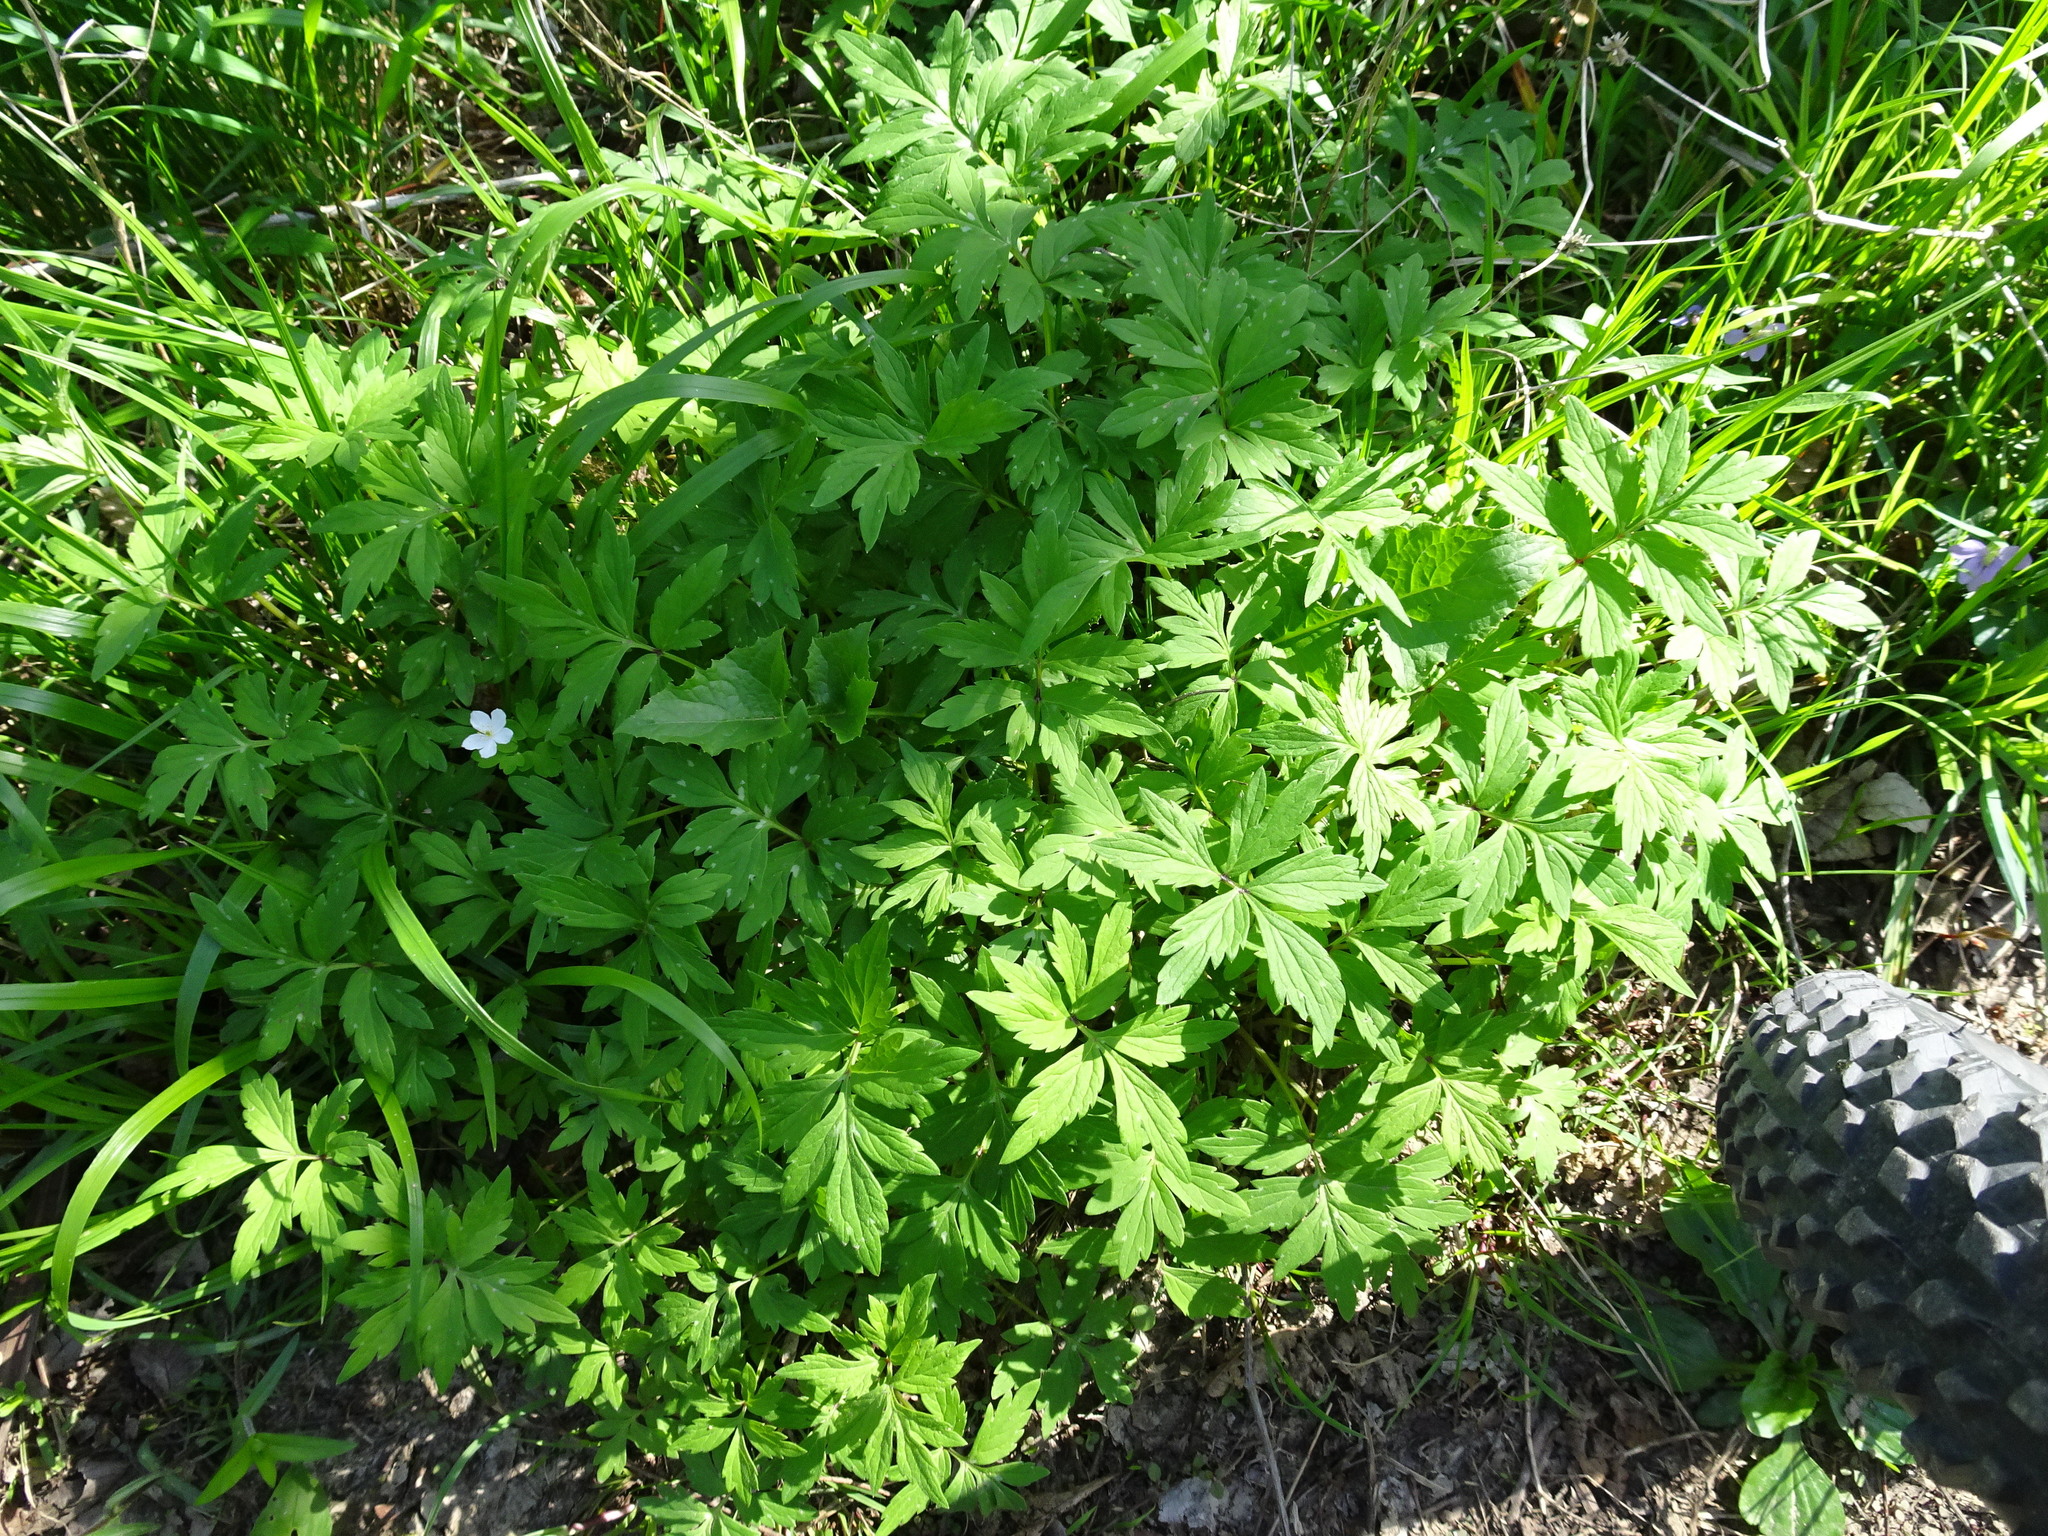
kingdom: Plantae
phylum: Tracheophyta
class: Magnoliopsida
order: Boraginales
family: Hydrophyllaceae
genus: Hydrophyllum
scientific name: Hydrophyllum virginianum
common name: Virginia waterleaf
